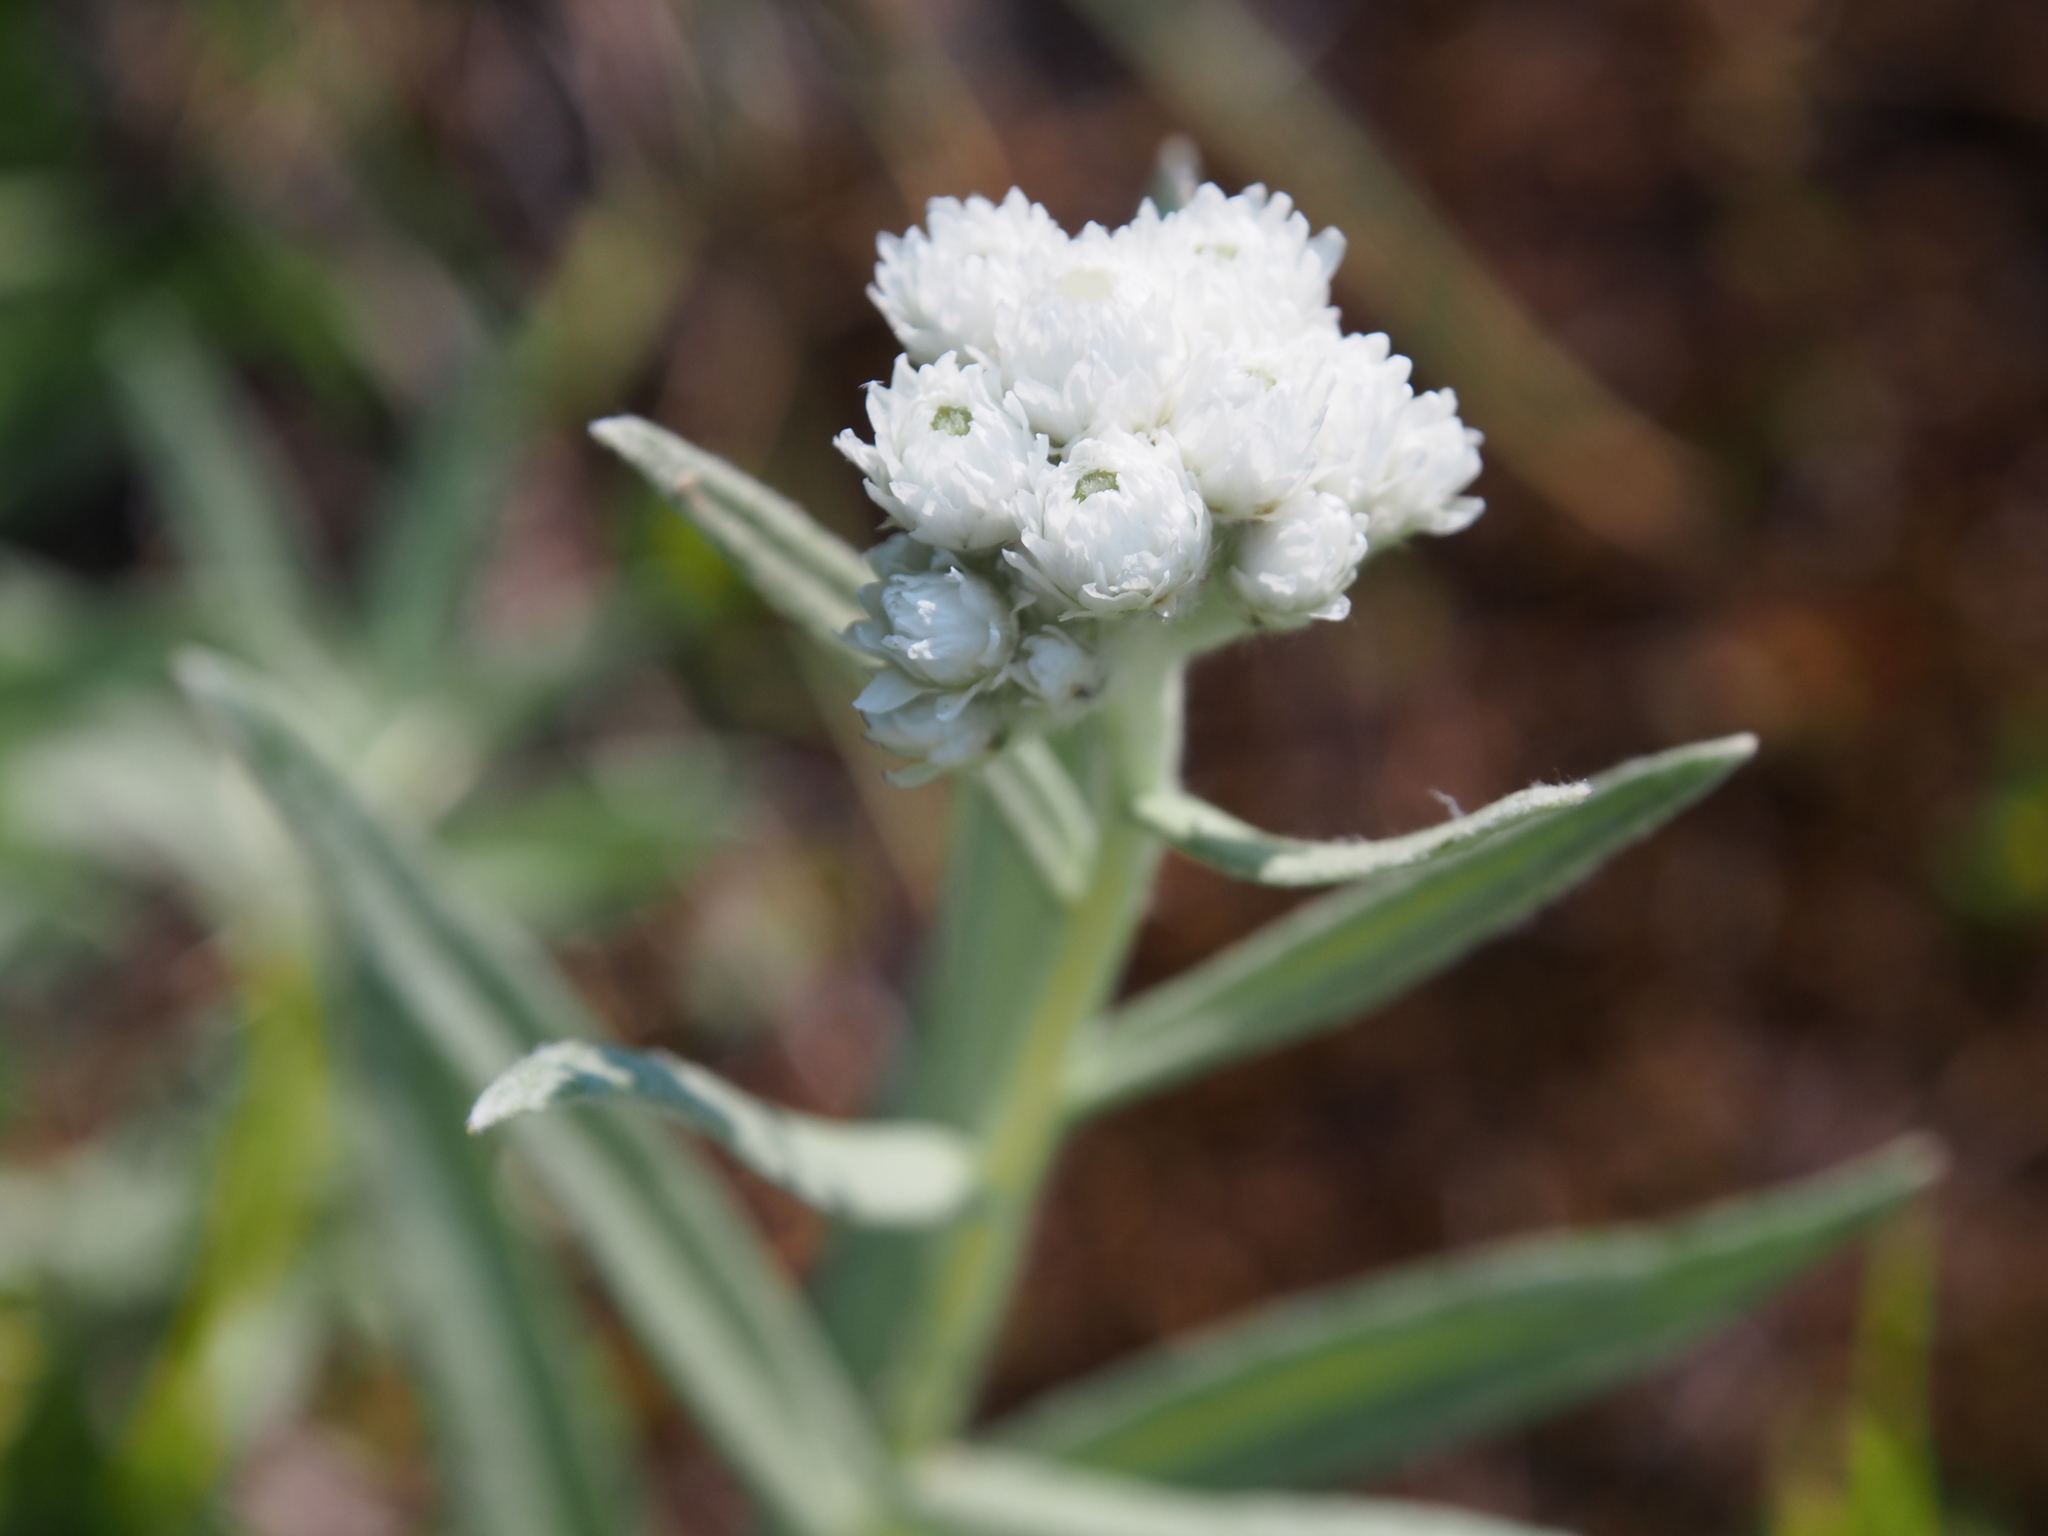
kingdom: Plantae
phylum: Tracheophyta
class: Magnoliopsida
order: Asterales
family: Asteraceae
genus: Anaphalis
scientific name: Anaphalis margaritacea
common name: Pearly everlasting
